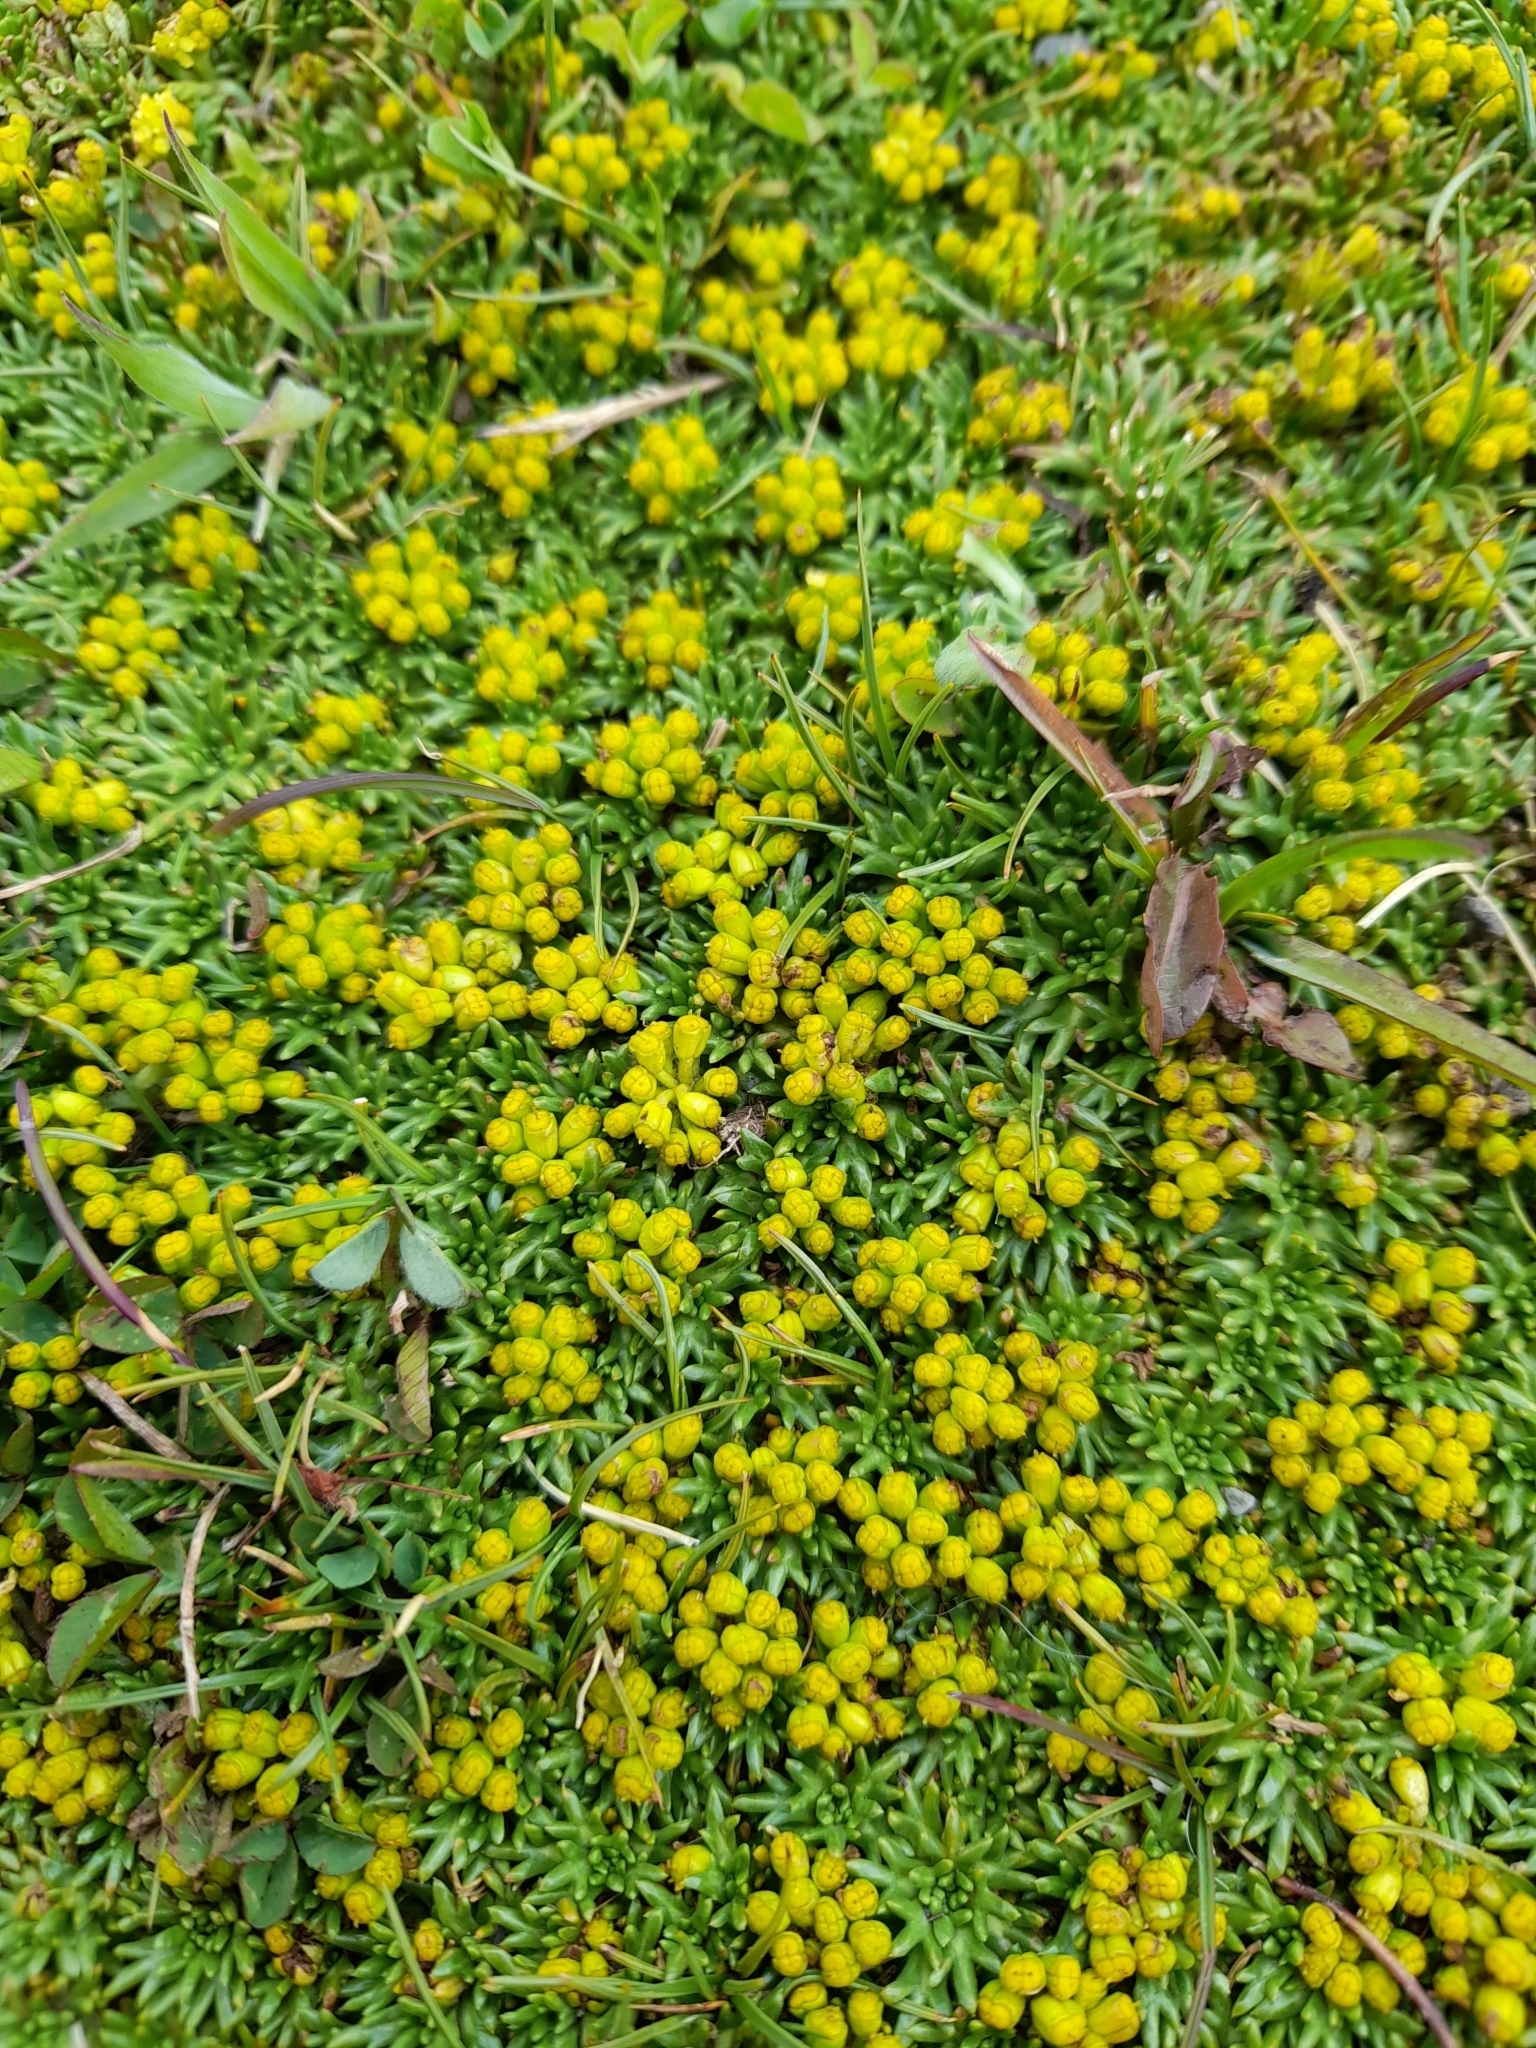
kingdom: Plantae
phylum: Tracheophyta
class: Magnoliopsida
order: Apiales
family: Apiaceae
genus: Azorella
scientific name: Azorella trifurcata
